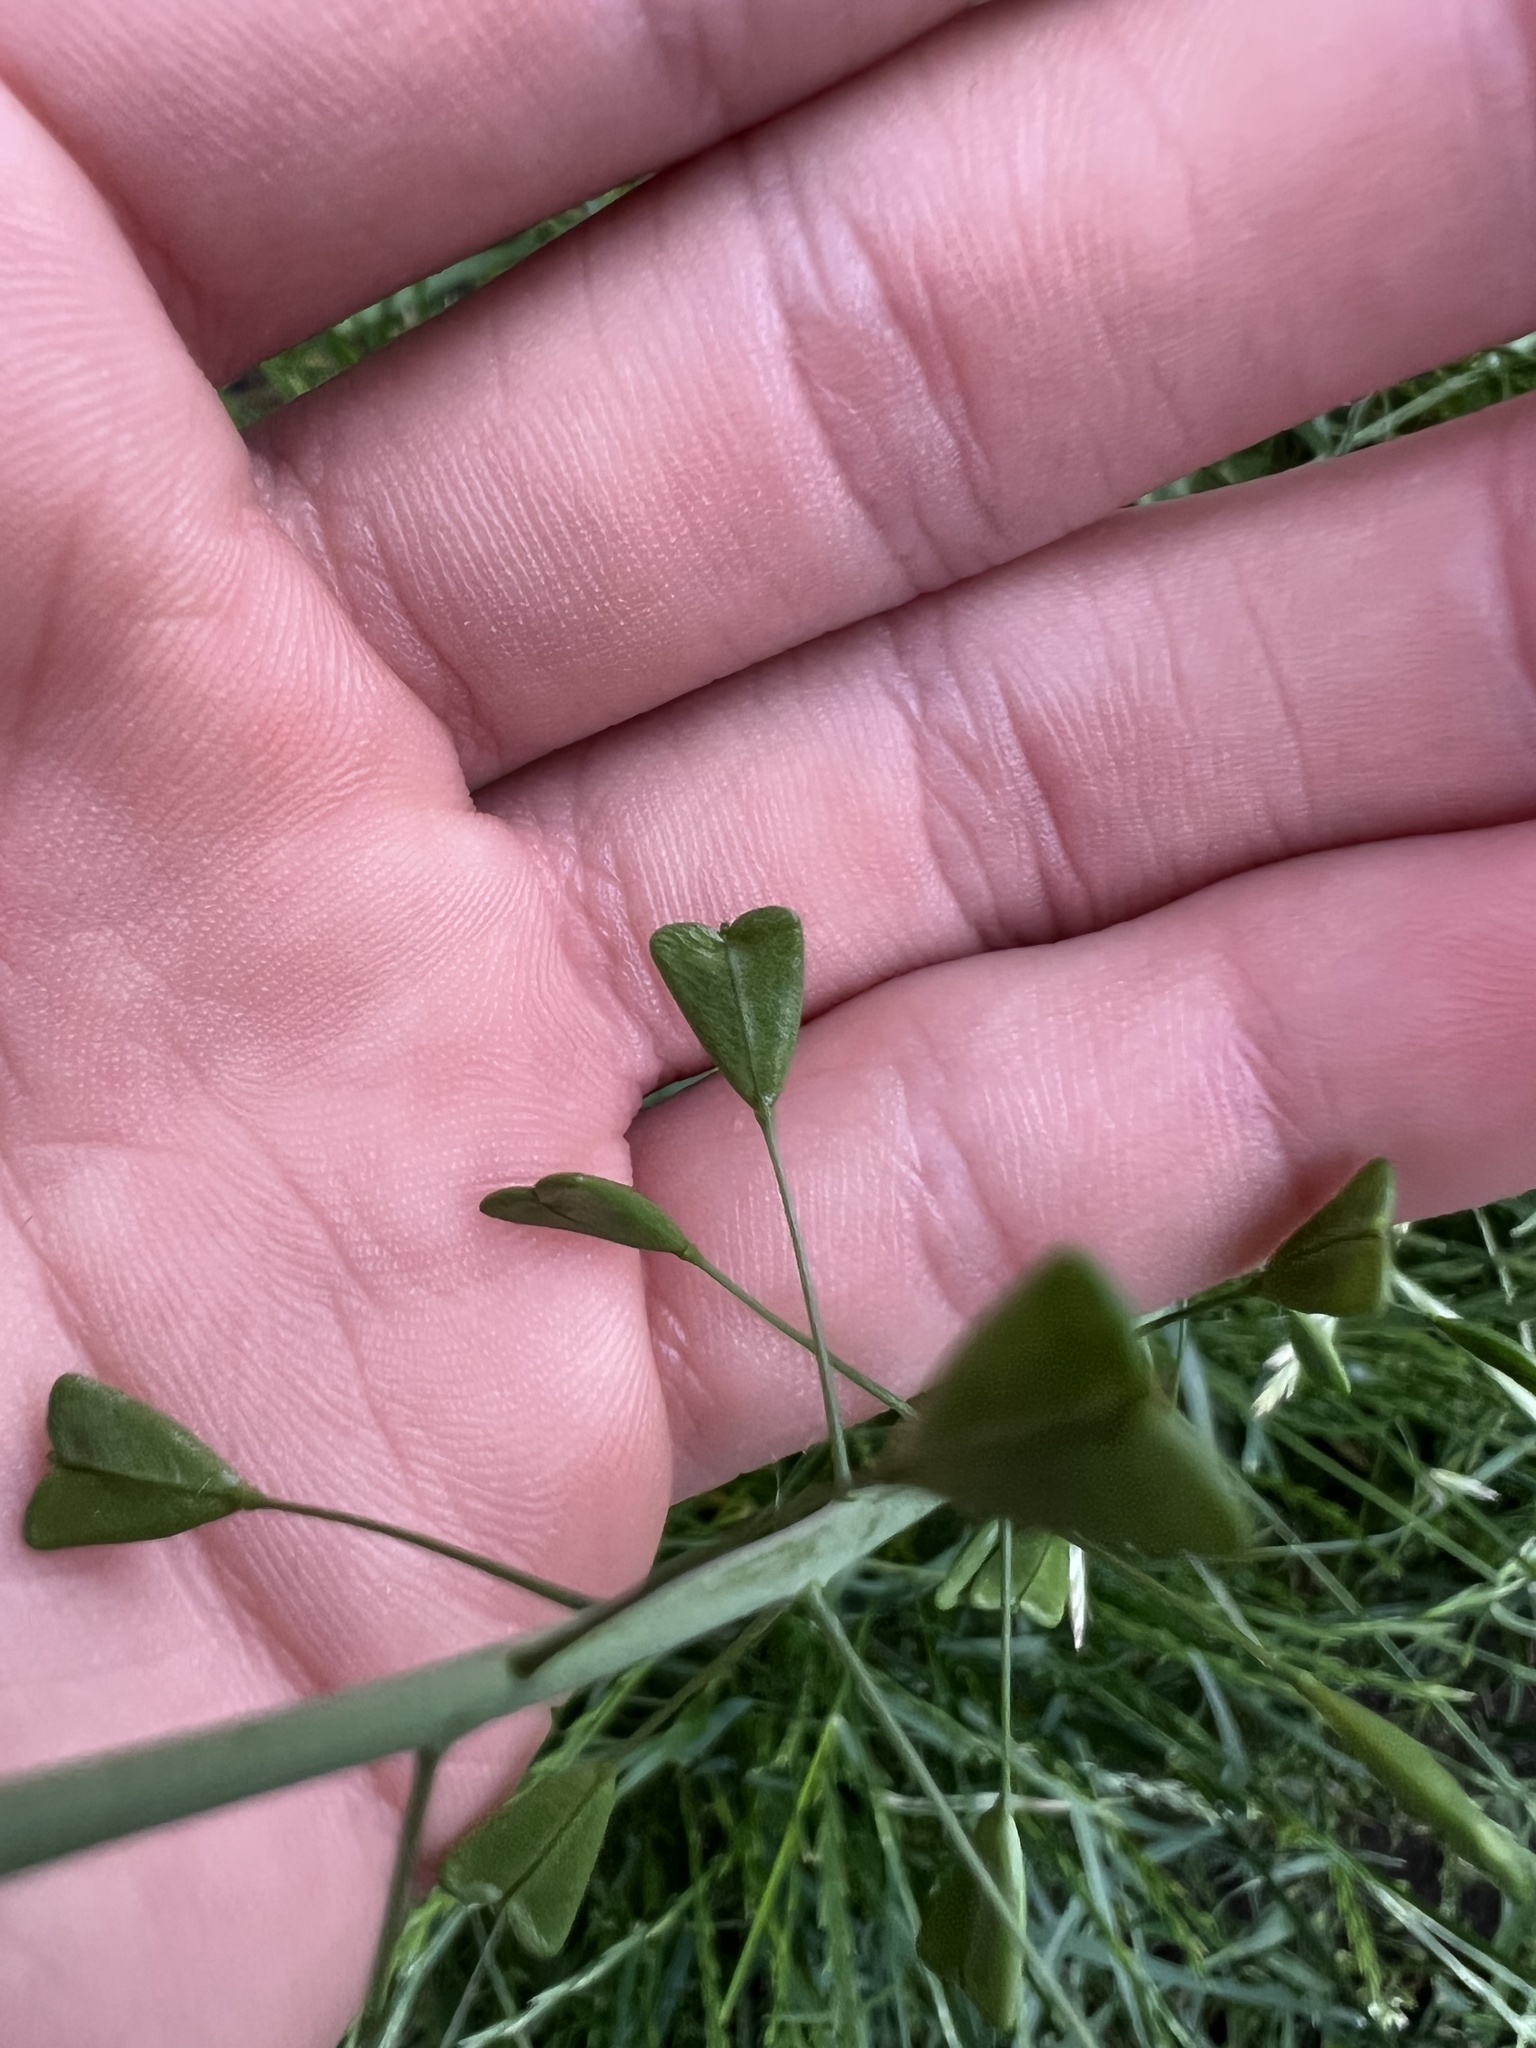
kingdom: Plantae
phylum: Tracheophyta
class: Magnoliopsida
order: Brassicales
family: Brassicaceae
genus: Capsella
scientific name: Capsella bursa-pastoris
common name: Shepherd's purse
